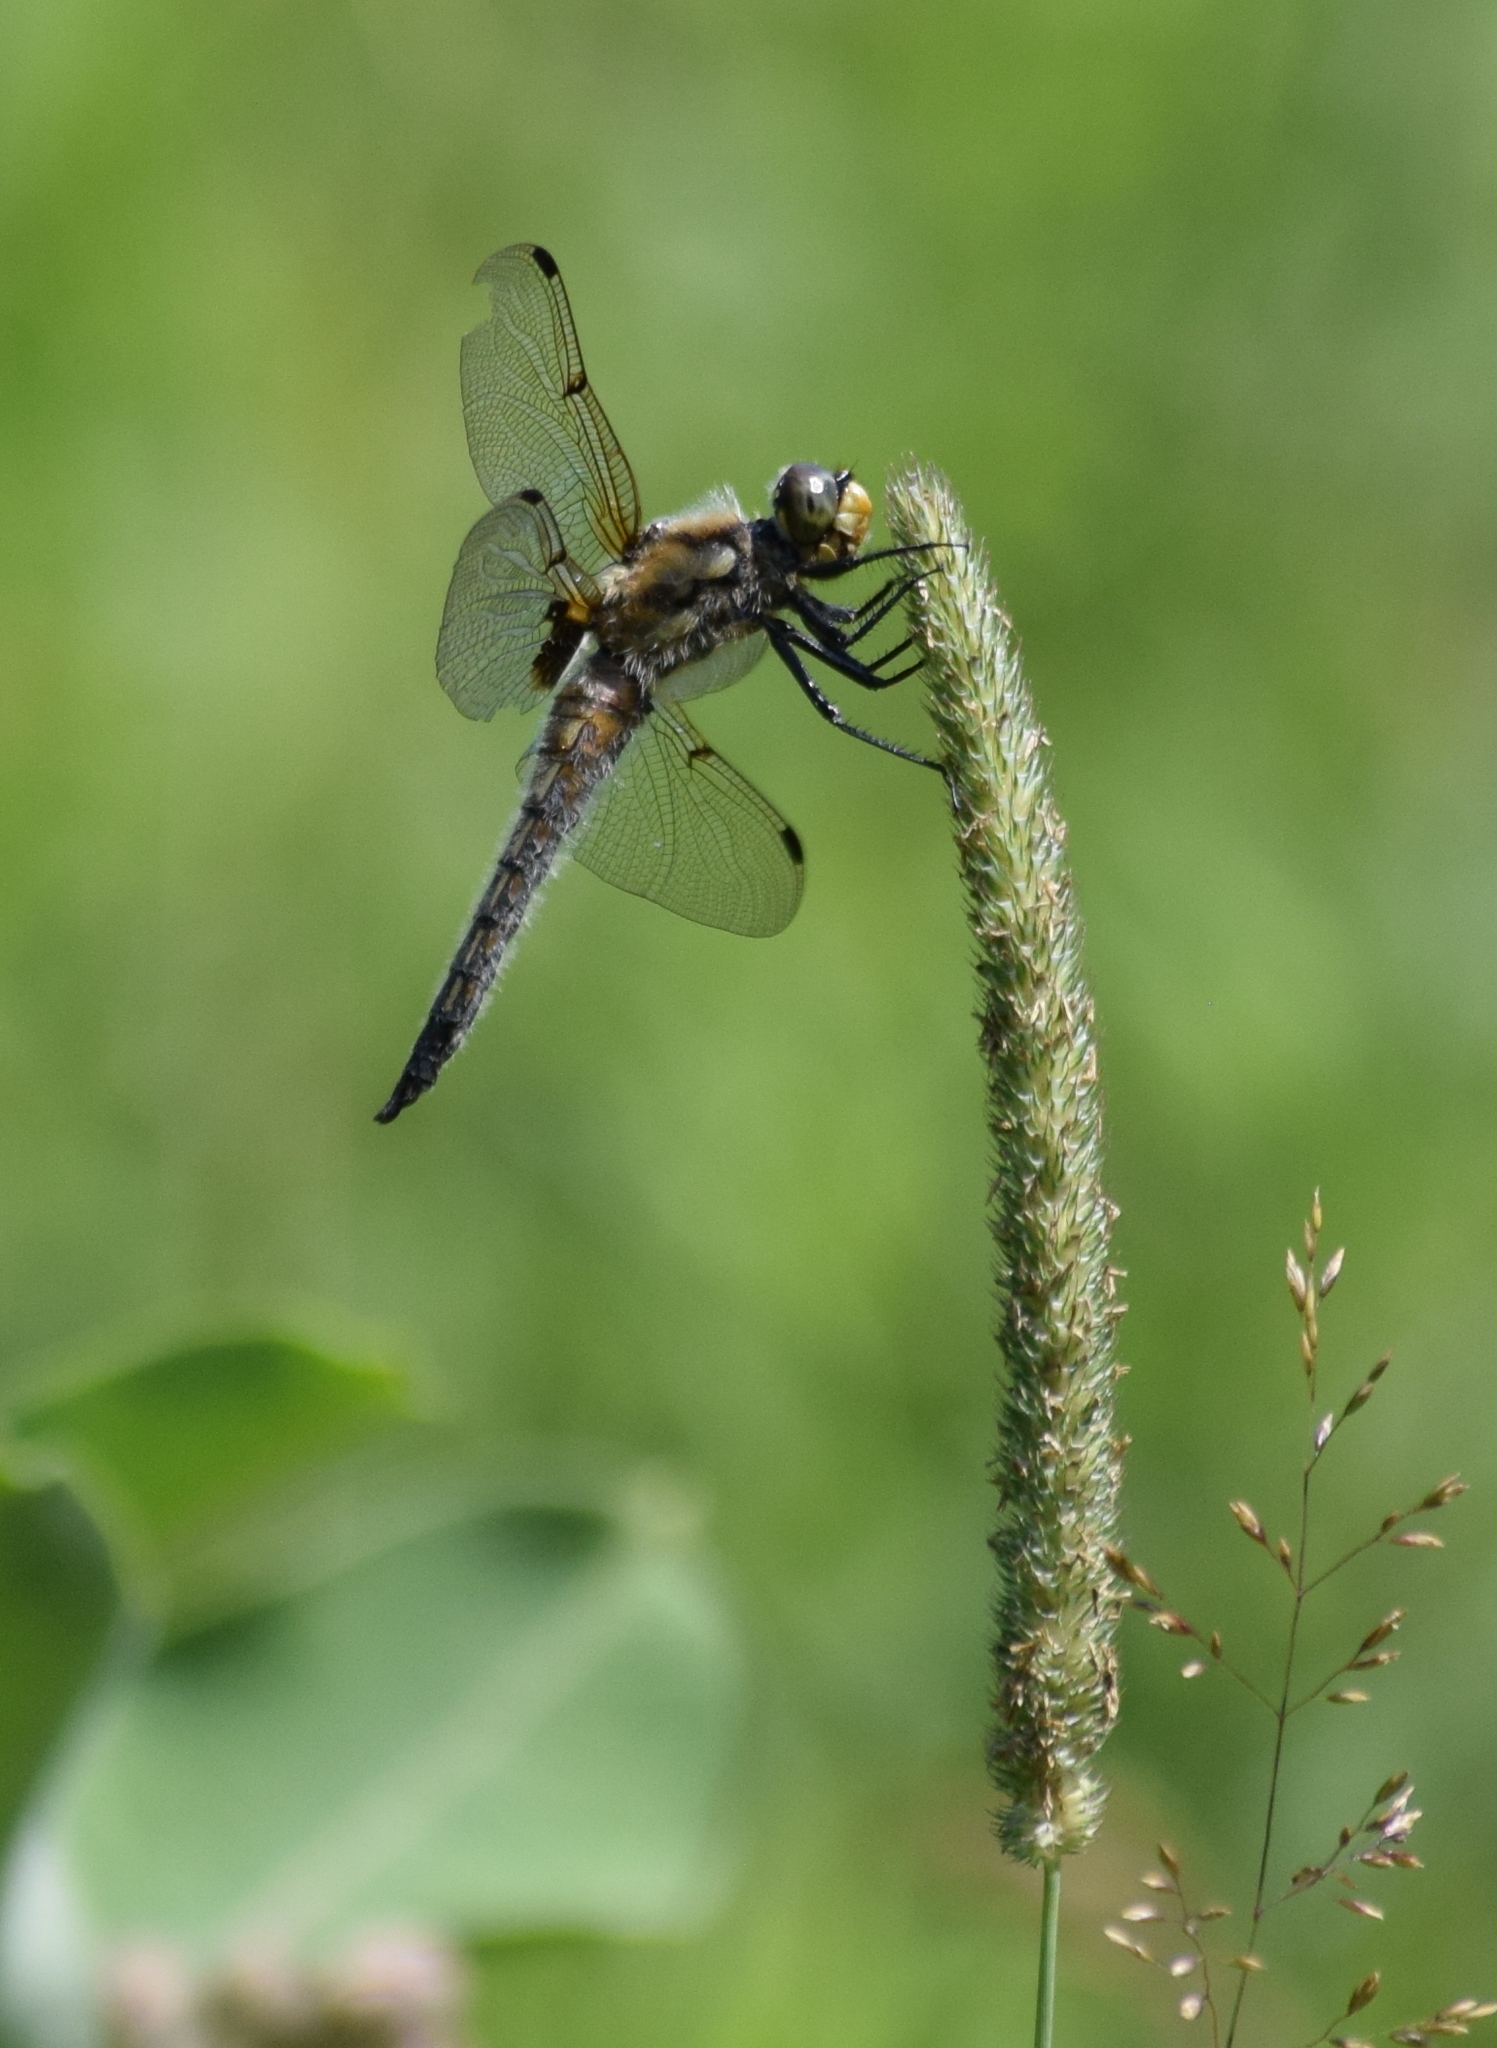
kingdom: Animalia
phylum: Arthropoda
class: Insecta
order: Odonata
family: Libellulidae
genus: Libellula
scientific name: Libellula quadrimaculata
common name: Four-spotted chaser
